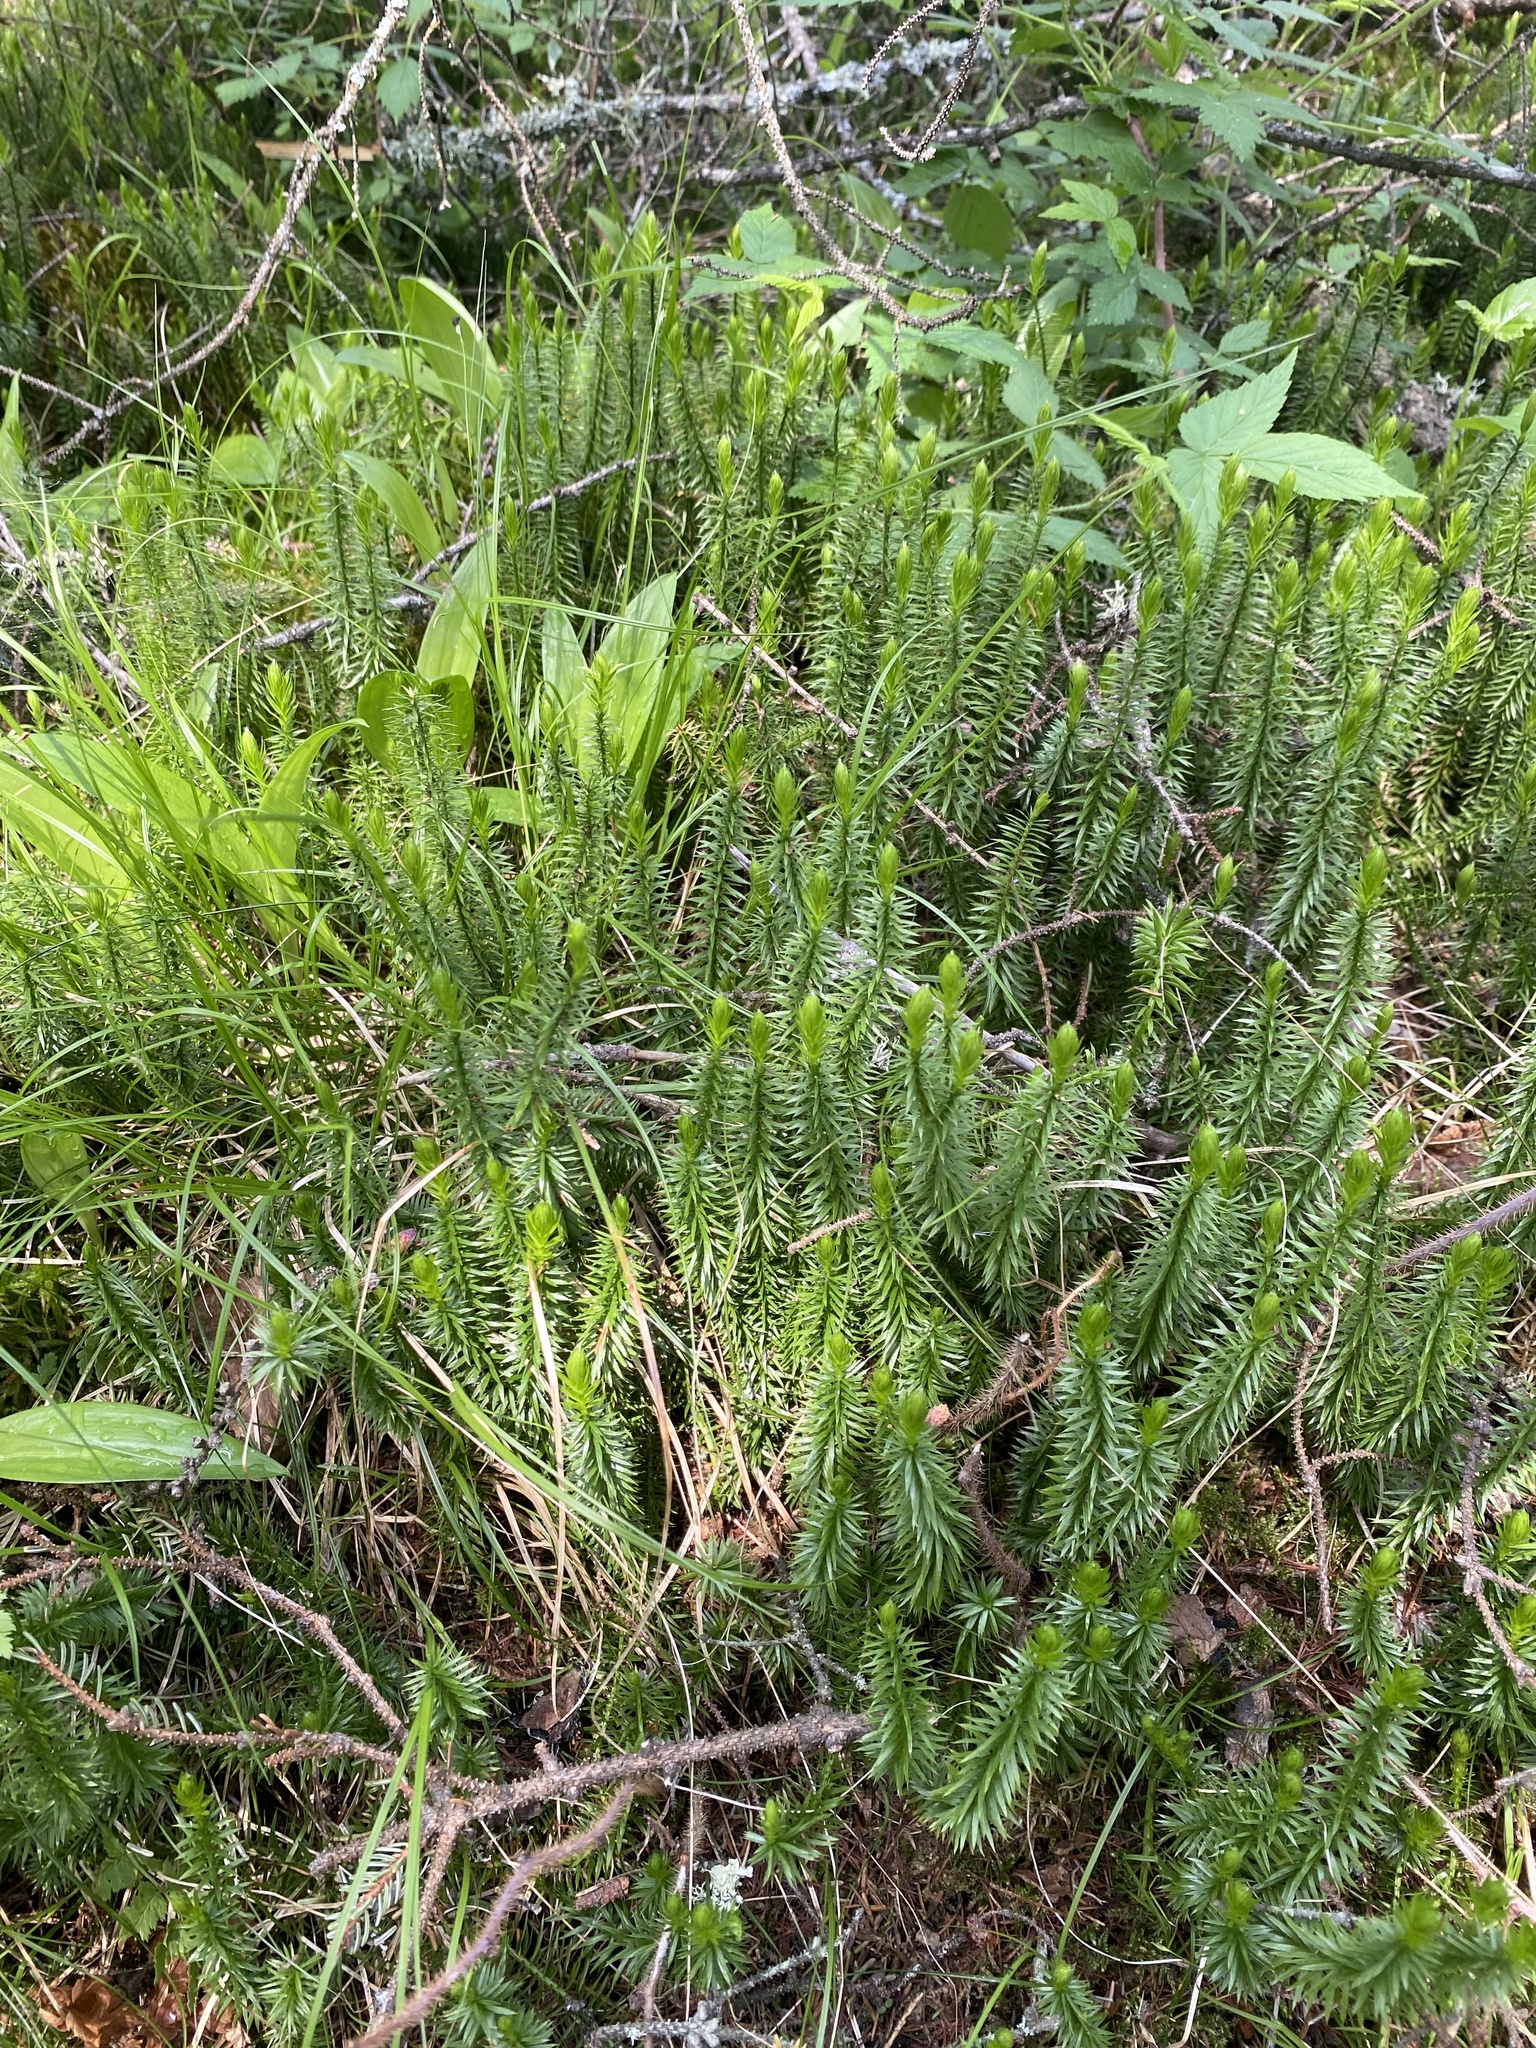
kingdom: Plantae
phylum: Tracheophyta
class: Lycopodiopsida
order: Lycopodiales
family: Lycopodiaceae
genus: Spinulum
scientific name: Spinulum annotinum
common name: Interrupted club-moss
